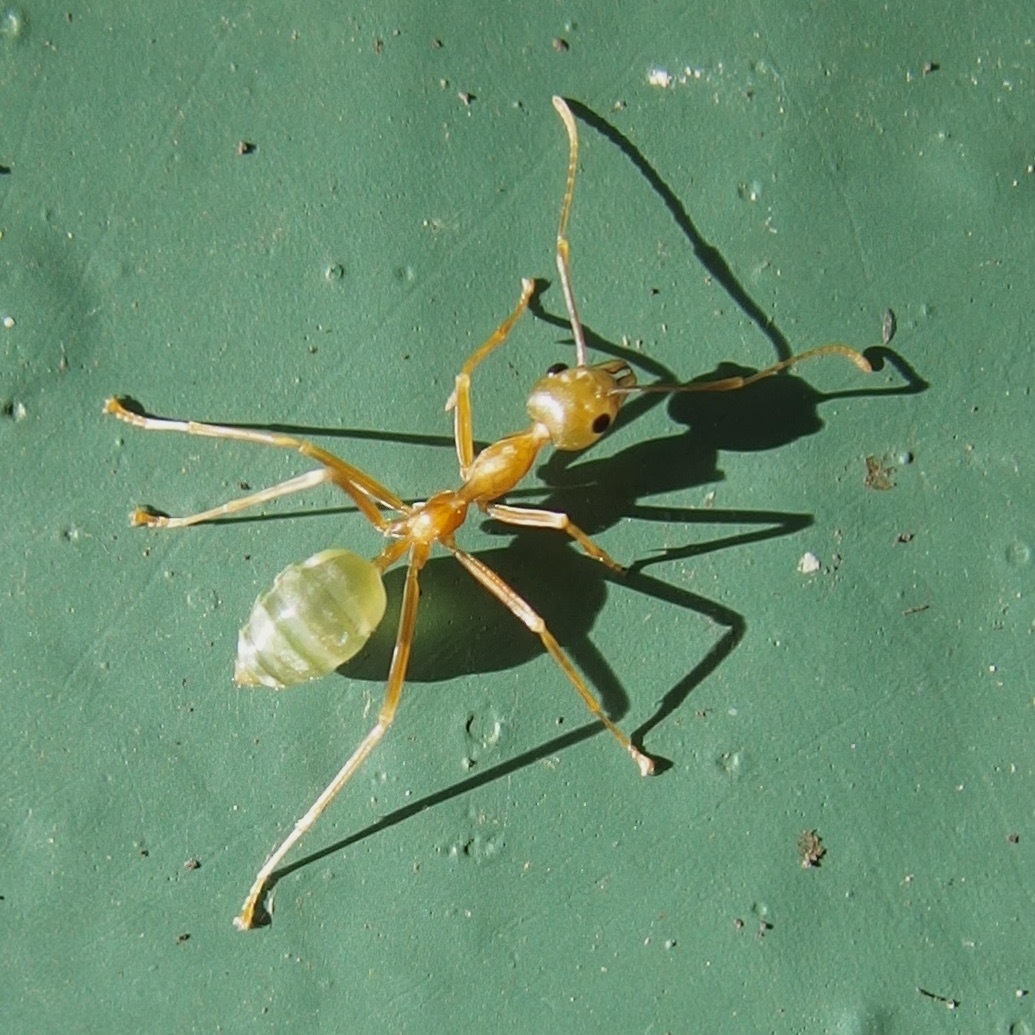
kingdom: Animalia
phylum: Arthropoda
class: Insecta
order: Hymenoptera
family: Formicidae
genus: Oecophylla
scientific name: Oecophylla smaragdina
